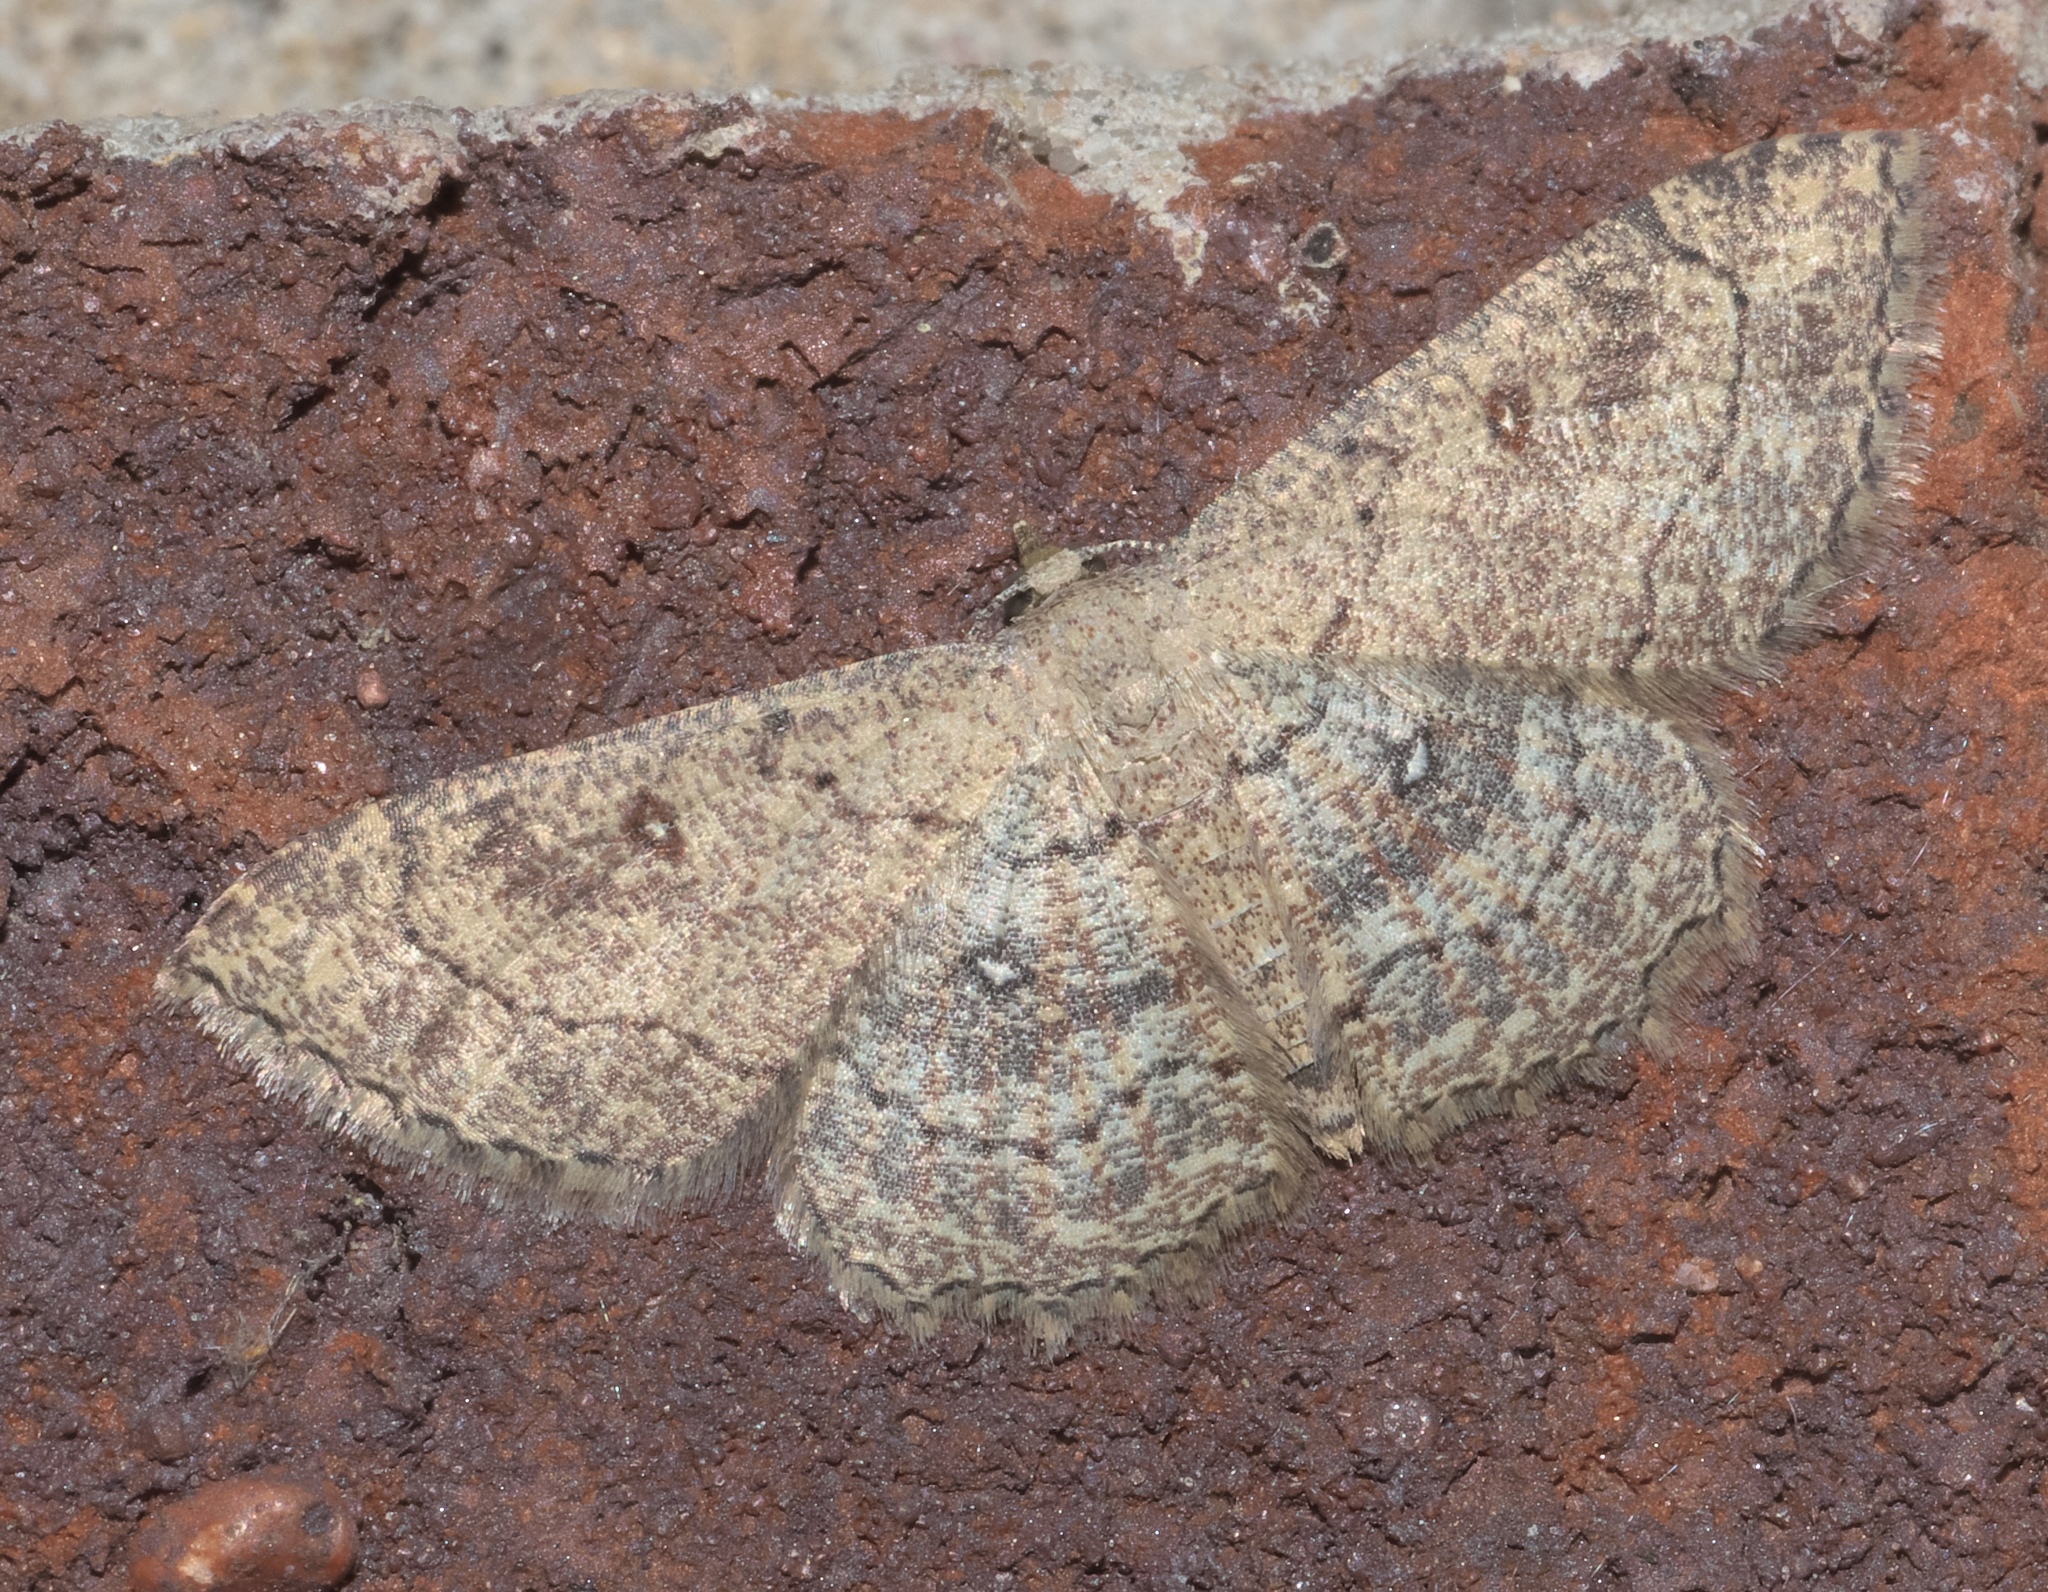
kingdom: Animalia
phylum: Arthropoda
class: Insecta
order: Lepidoptera
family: Geometridae
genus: Cyclophora
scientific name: Cyclophora nanaria
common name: Cankerworm
